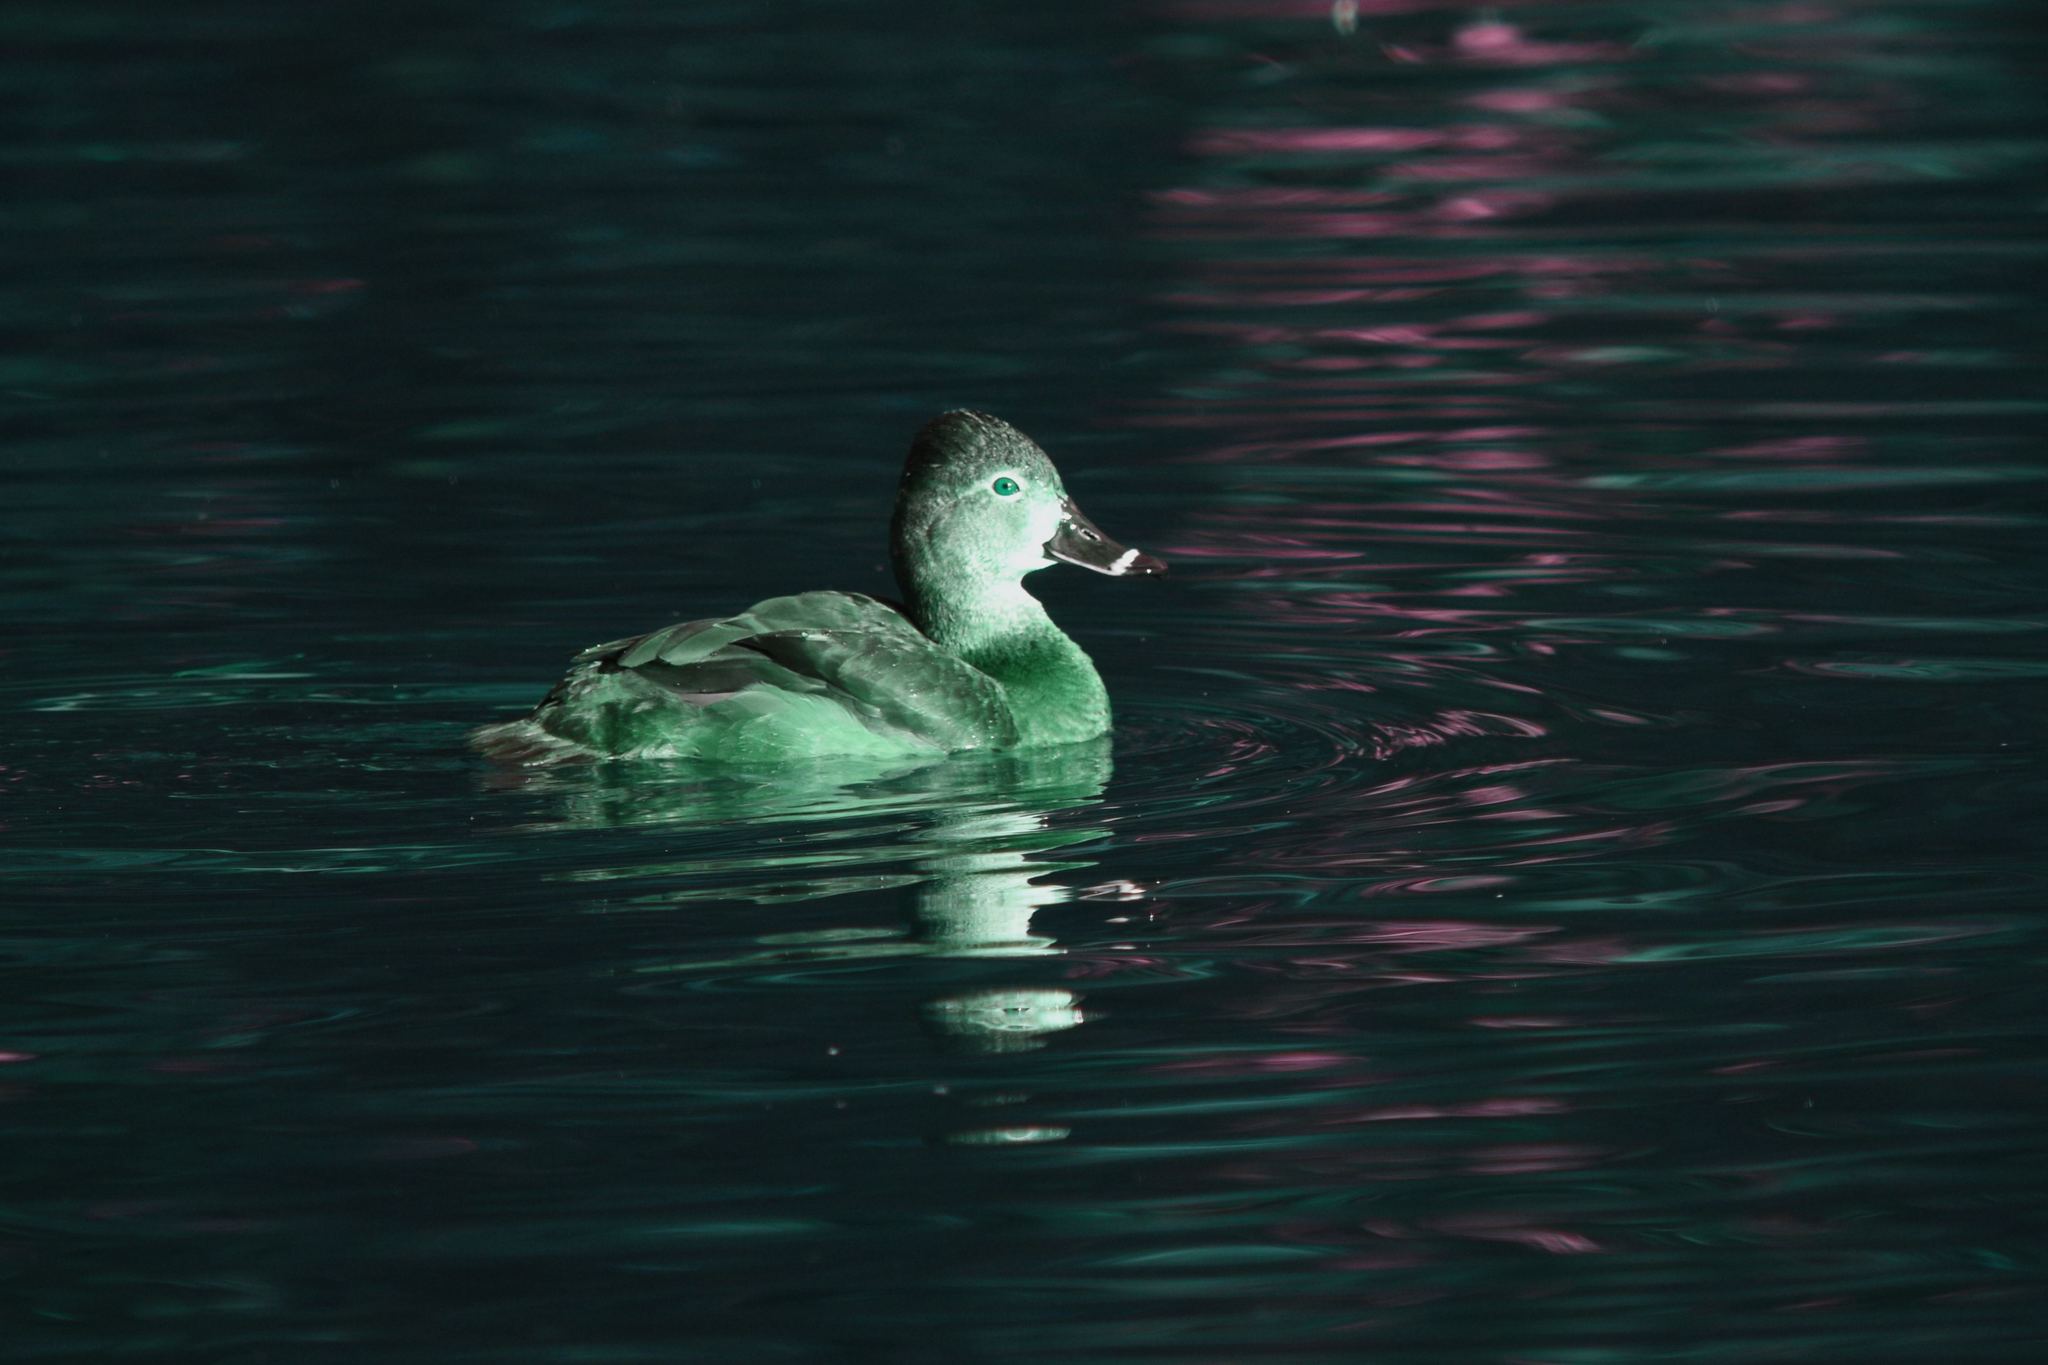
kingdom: Animalia
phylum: Chordata
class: Aves
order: Anseriformes
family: Anatidae
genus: Aythya
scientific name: Aythya collaris
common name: Ring-necked duck
